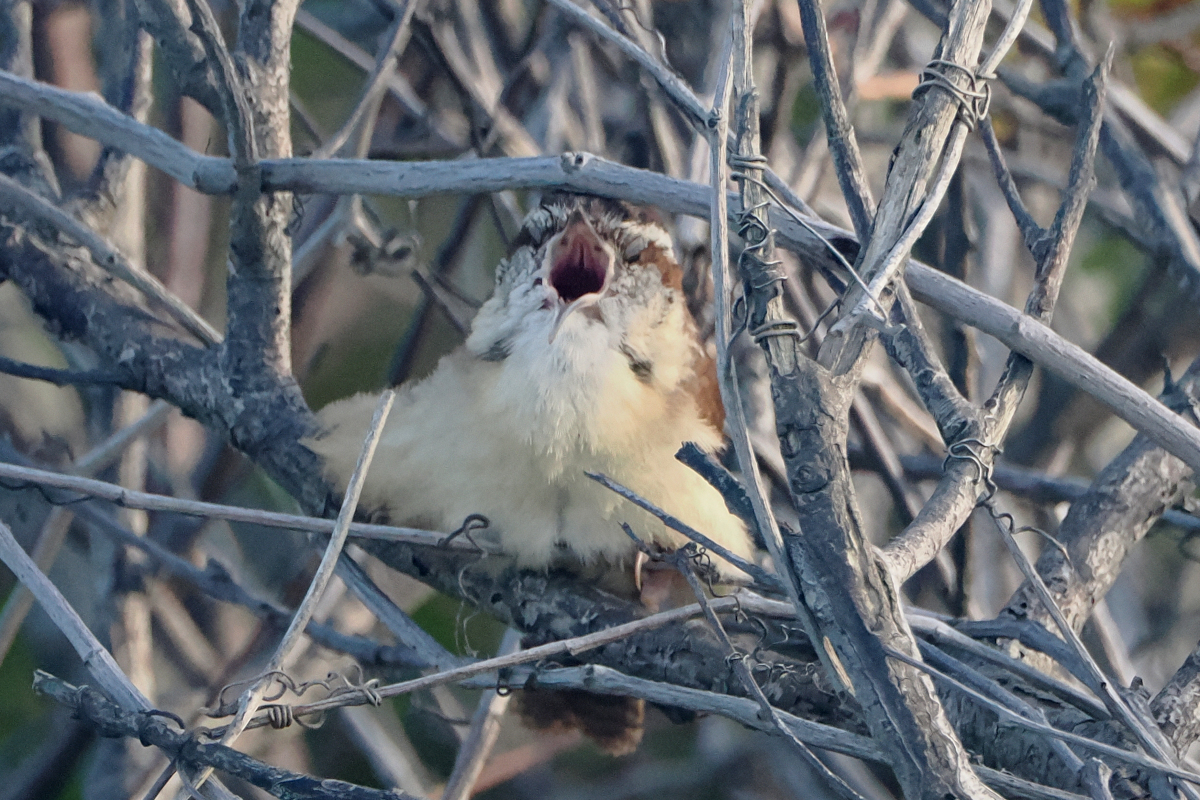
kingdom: Animalia
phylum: Chordata
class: Aves
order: Passeriformes
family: Troglodytidae
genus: Thryothorus
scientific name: Thryothorus ludovicianus
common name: Carolina wren
